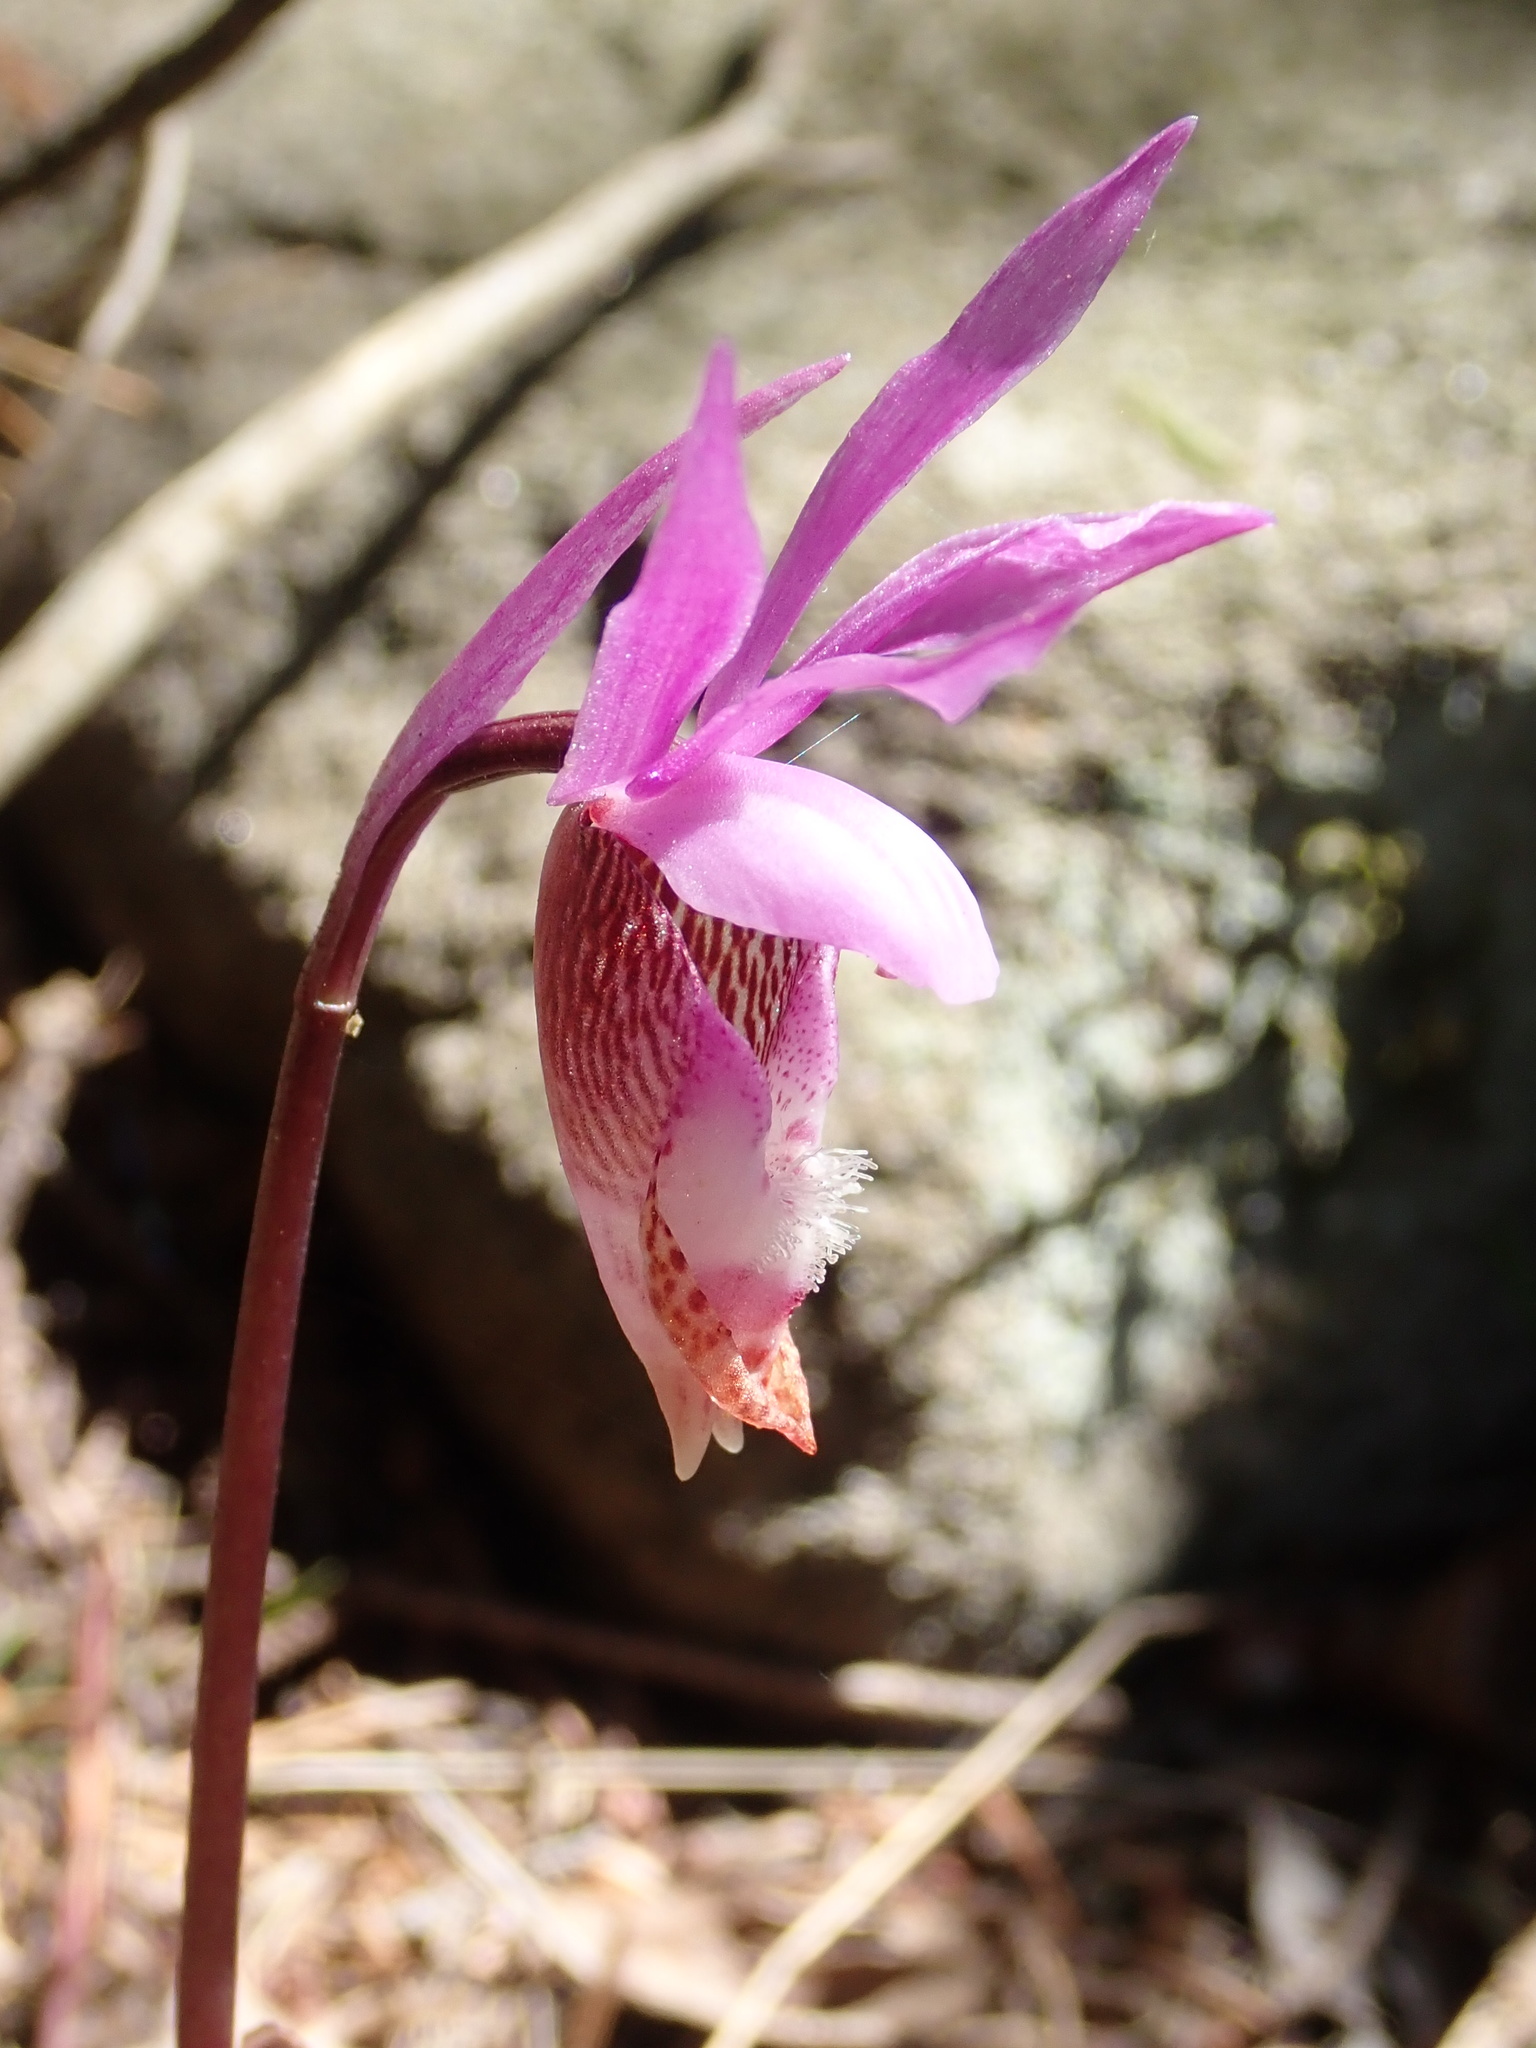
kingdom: Plantae
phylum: Tracheophyta
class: Liliopsida
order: Asparagales
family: Orchidaceae
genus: Calypso
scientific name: Calypso bulbosa
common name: Calypso
